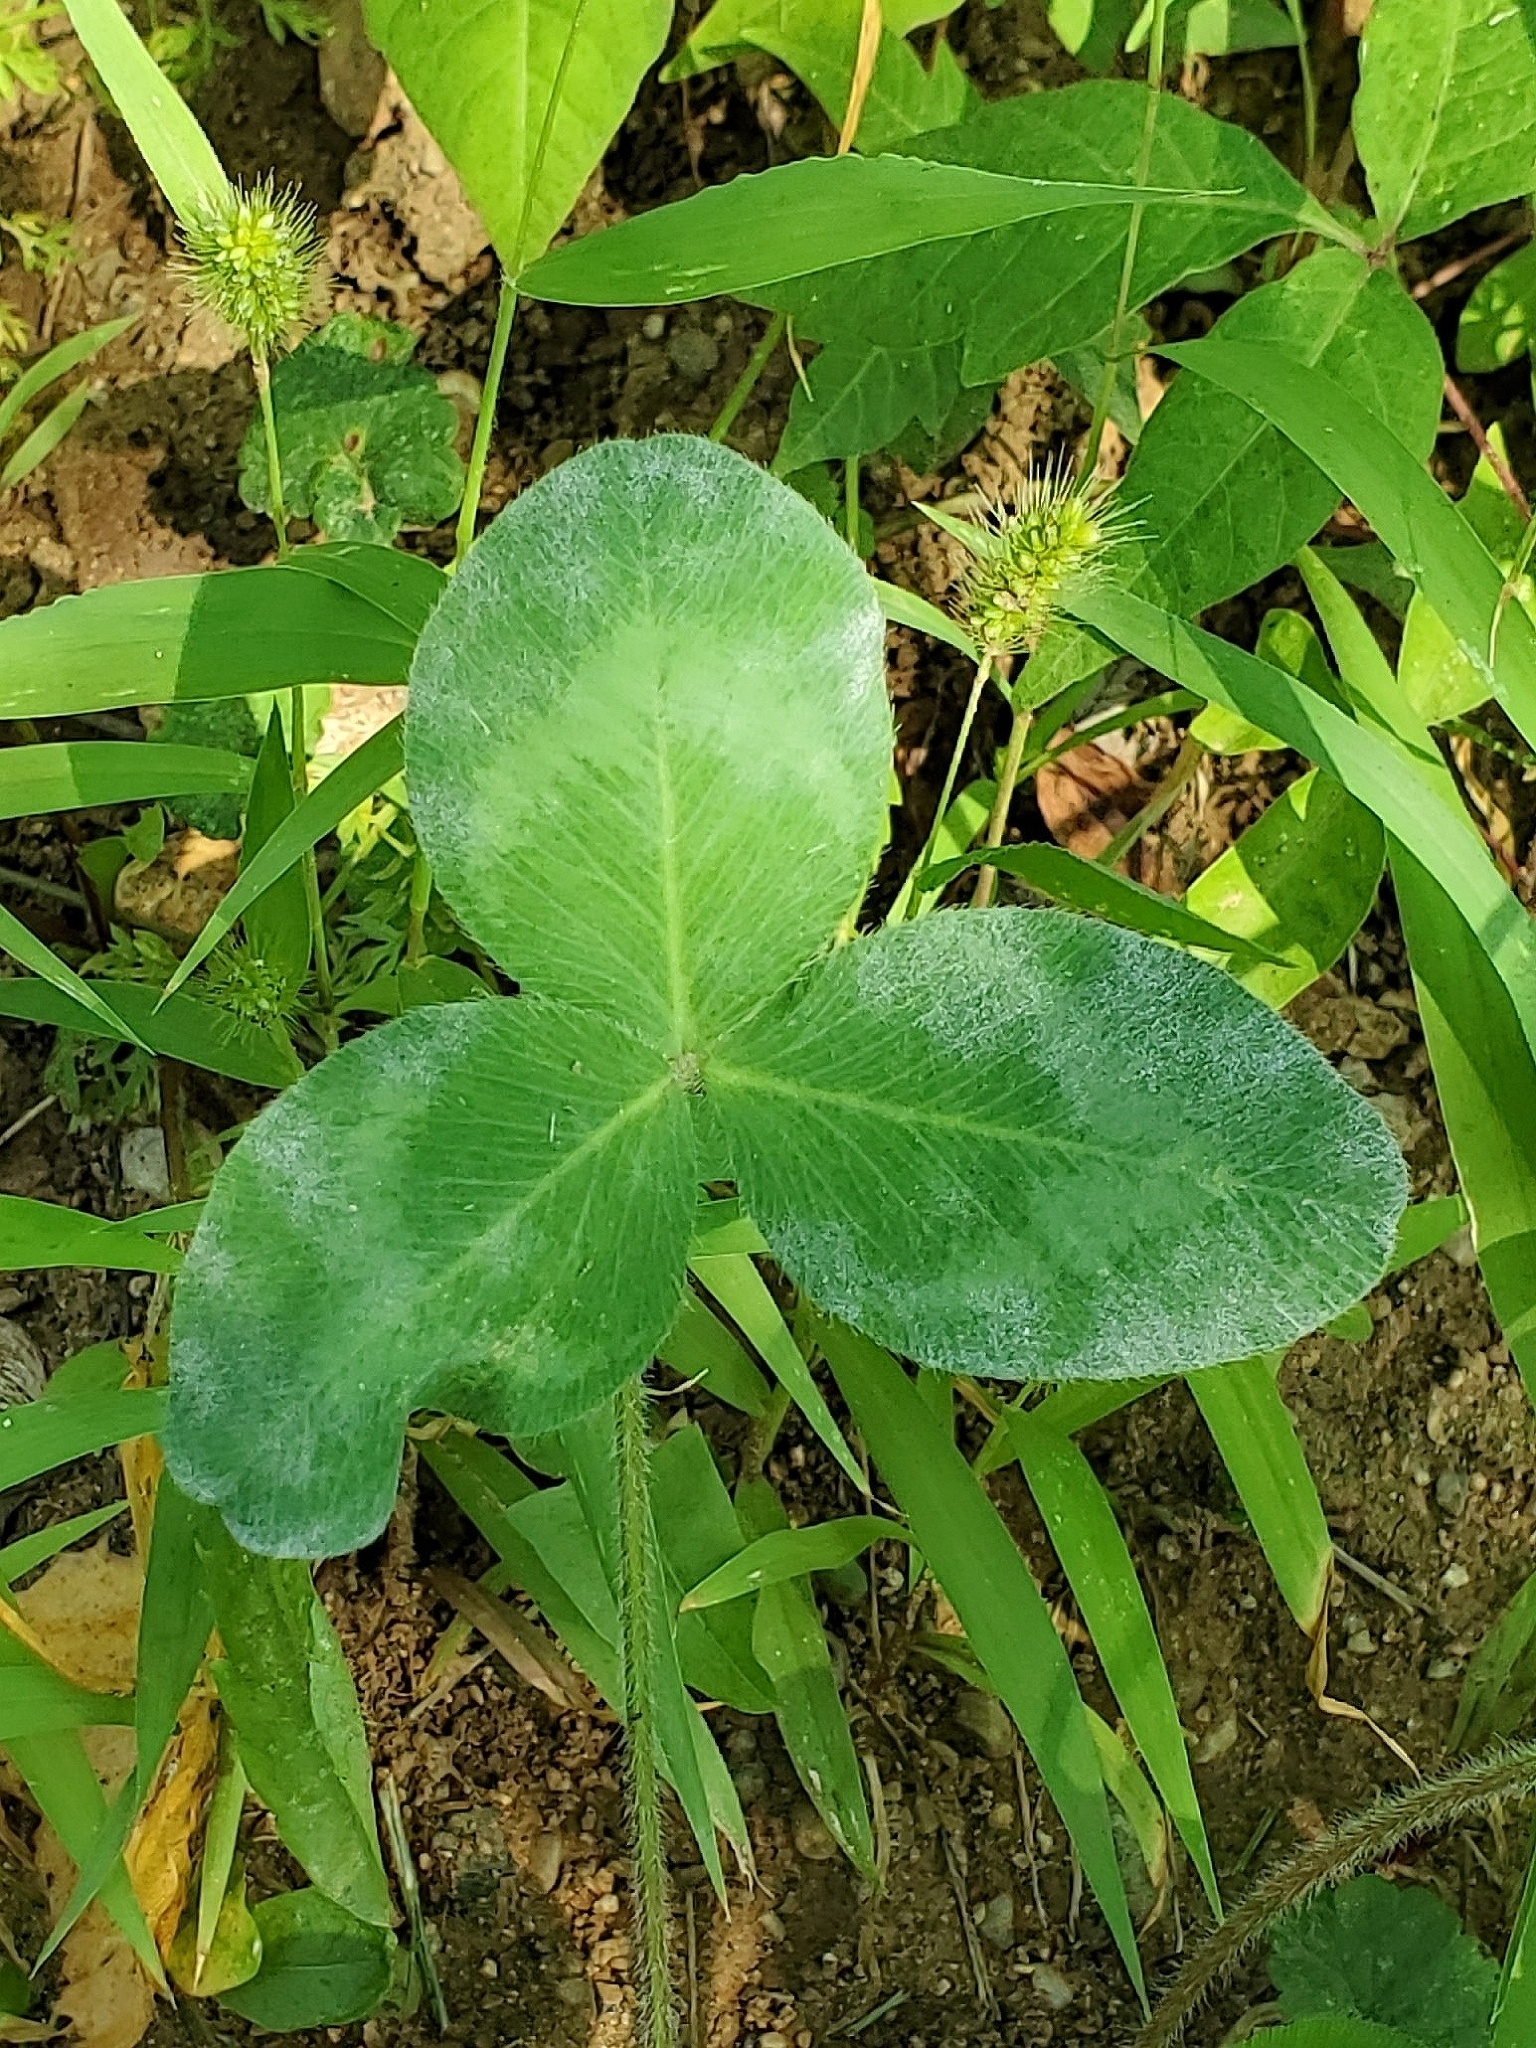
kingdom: Fungi
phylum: Ascomycota
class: Leotiomycetes
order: Helotiales
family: Erysiphaceae
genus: Erysiphe
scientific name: Erysiphe trifoliorum
